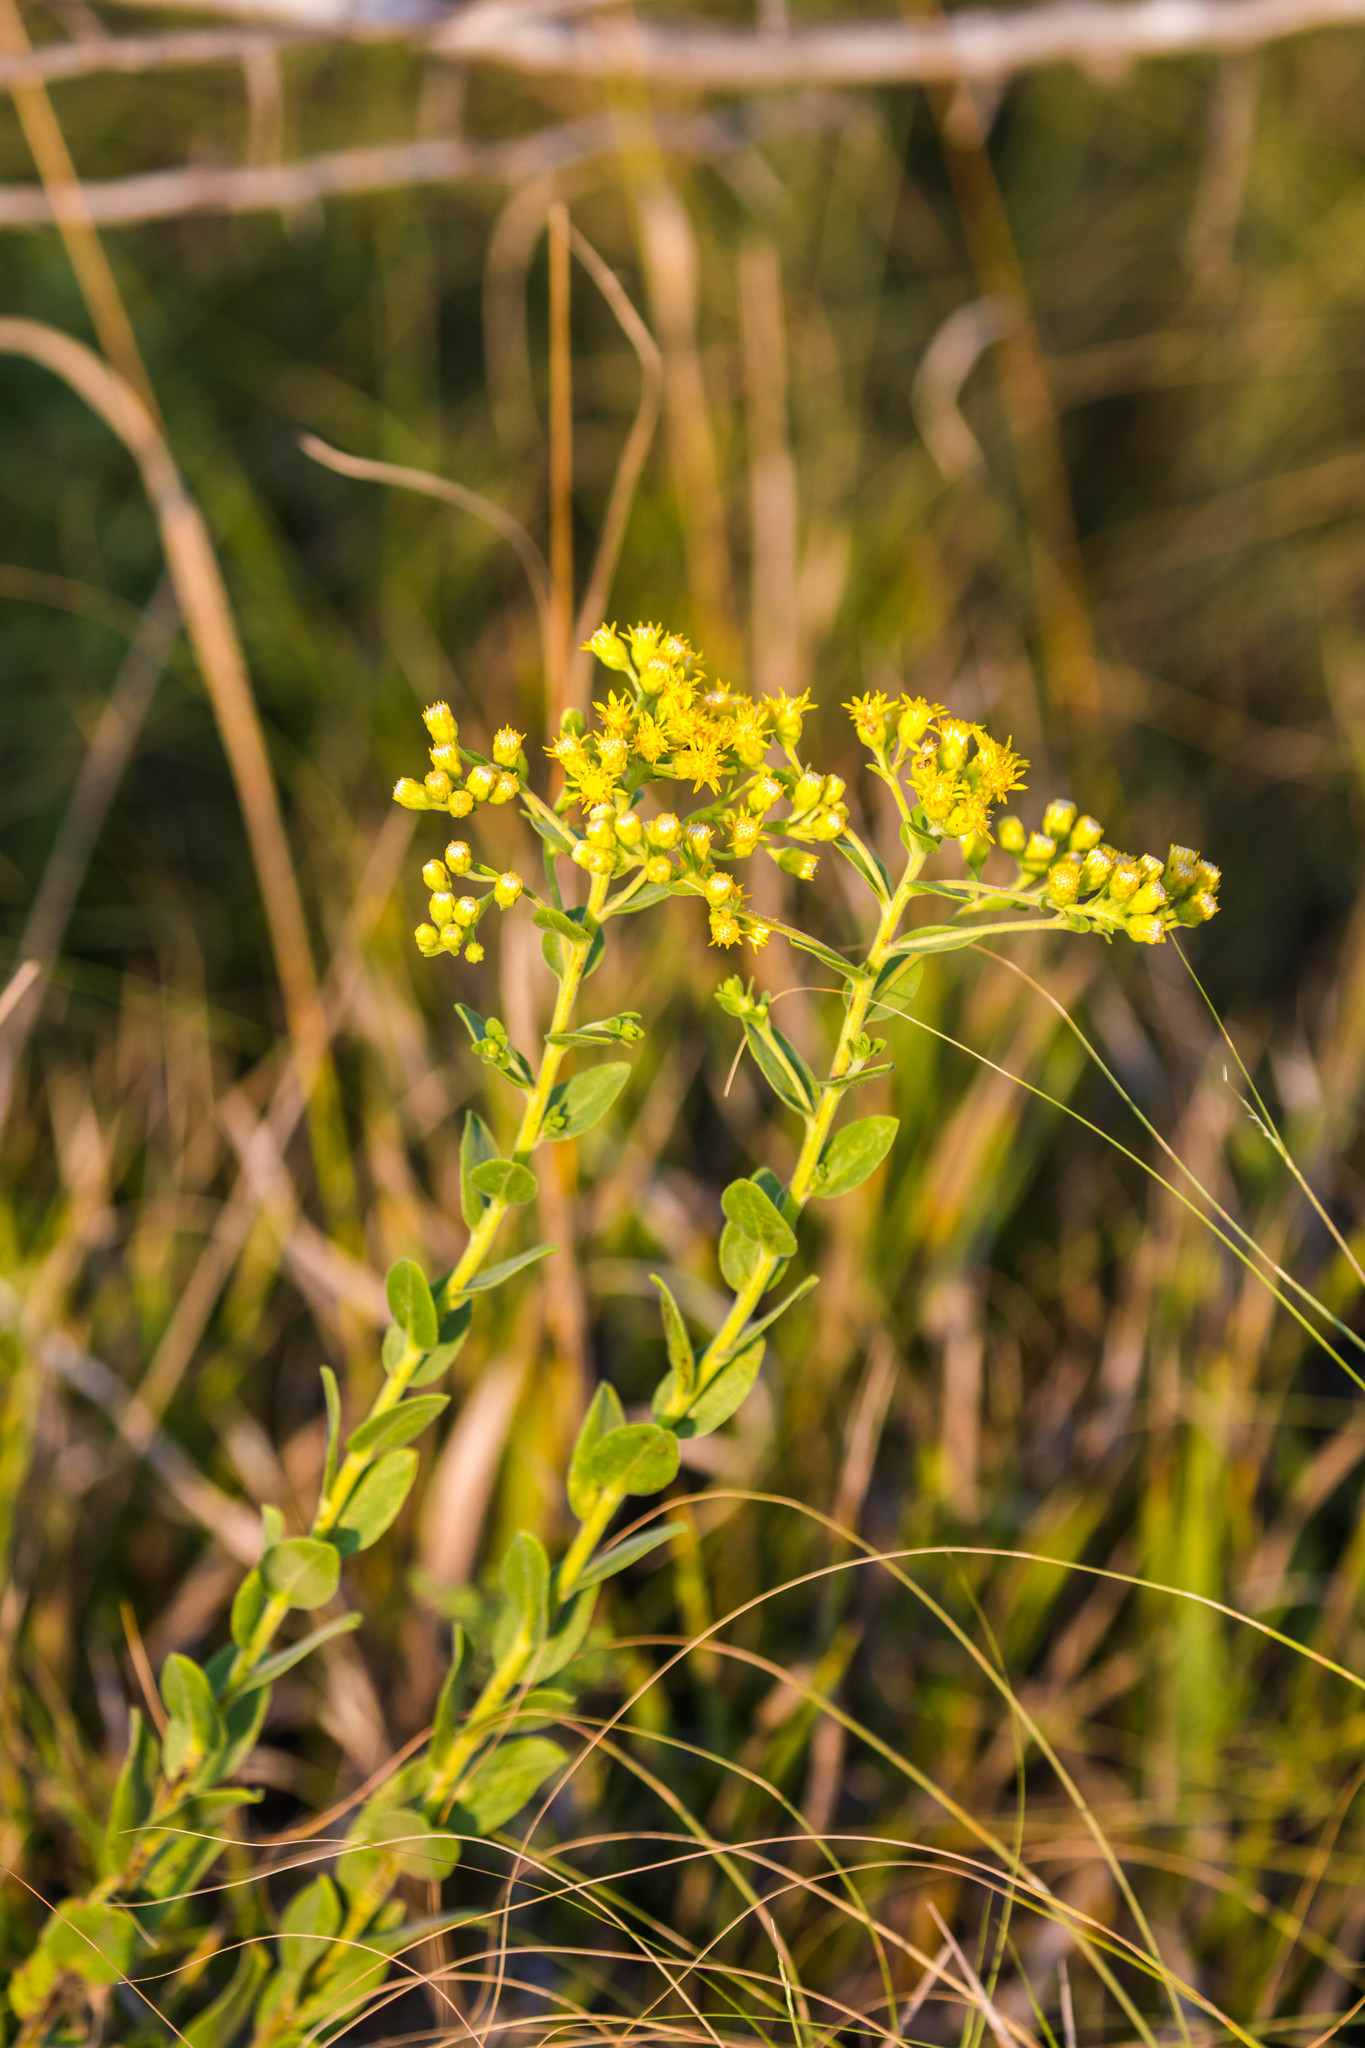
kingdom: Plantae
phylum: Tracheophyta
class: Magnoliopsida
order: Asterales
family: Asteraceae
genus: Solidago
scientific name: Solidago rigida
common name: Rigid goldenrod
